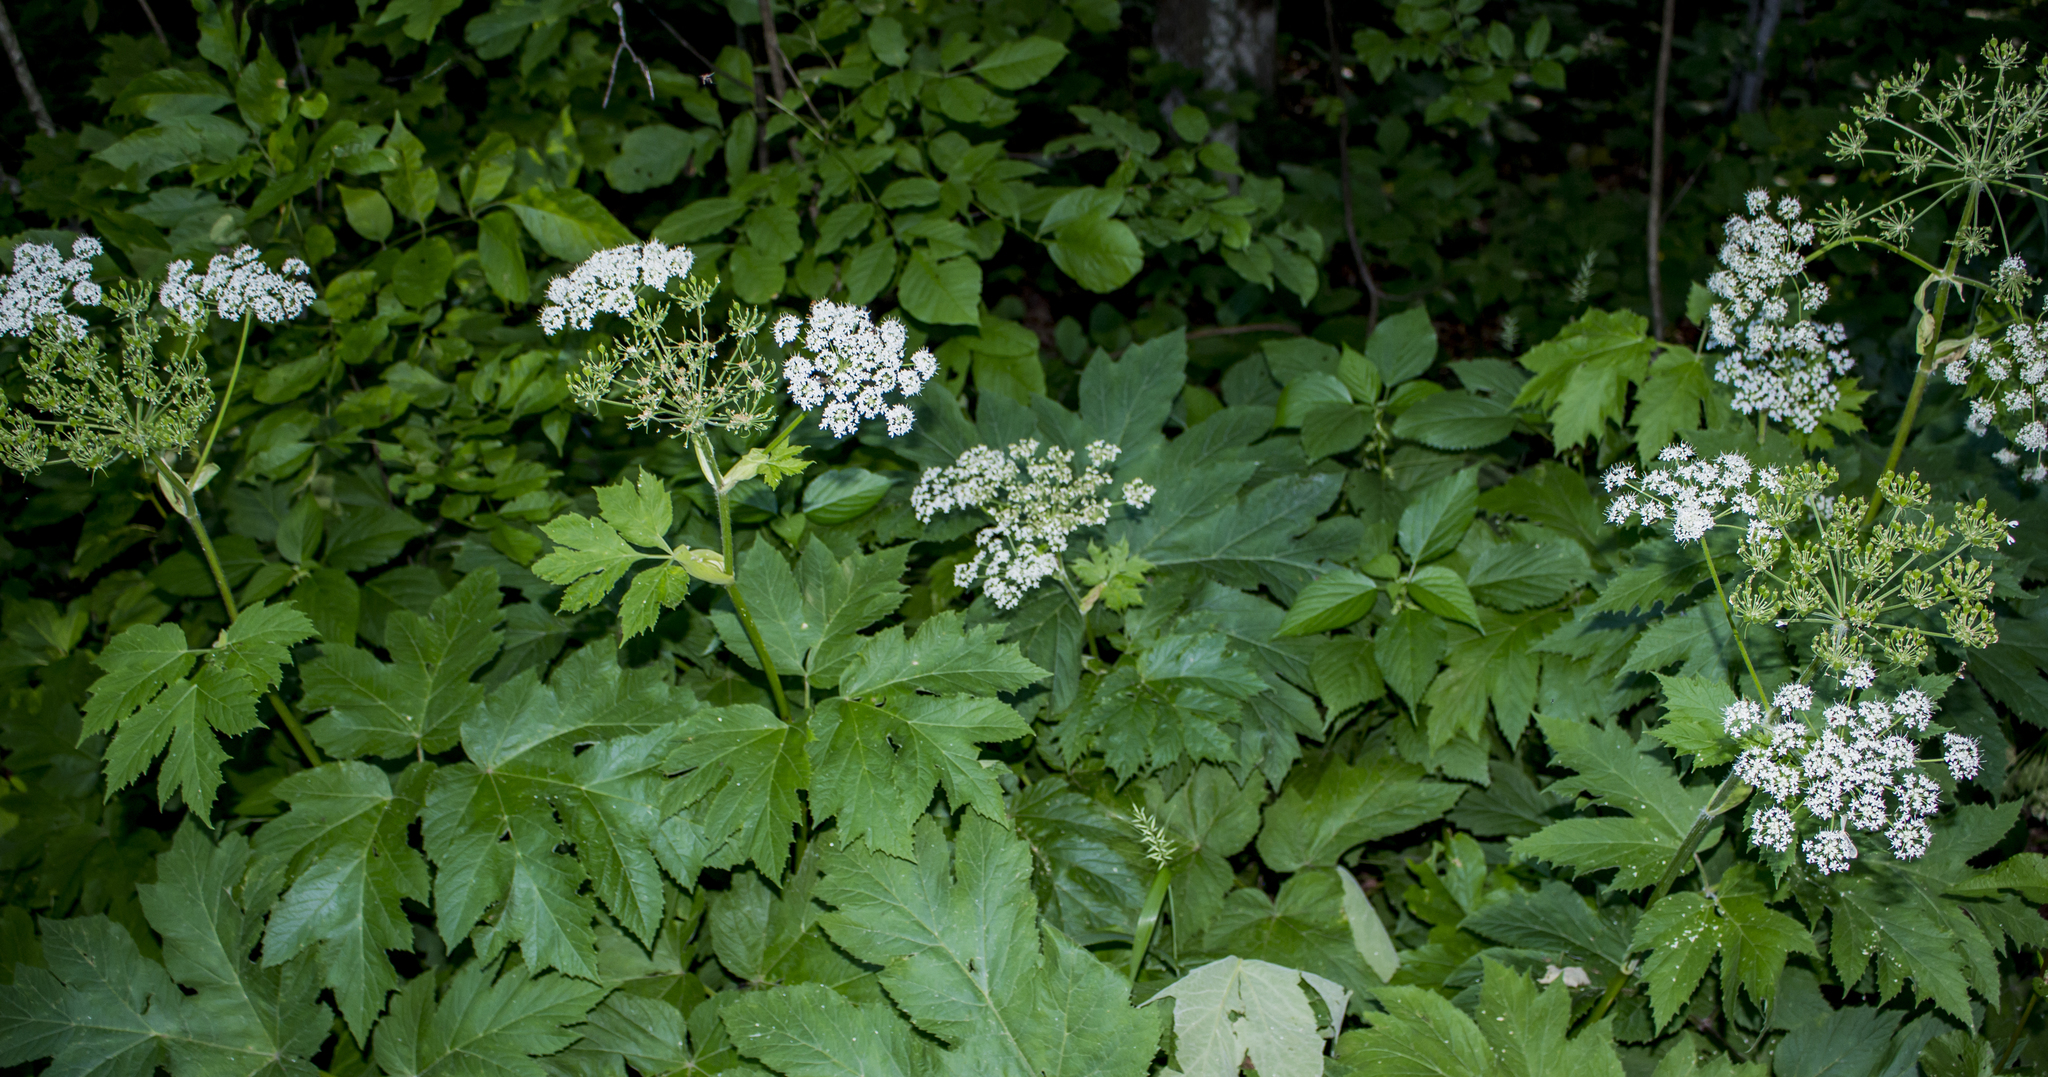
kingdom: Plantae
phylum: Tracheophyta
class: Magnoliopsida
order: Apiales
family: Apiaceae
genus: Heracleum
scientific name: Heracleum maximum
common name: American cow parsnip
